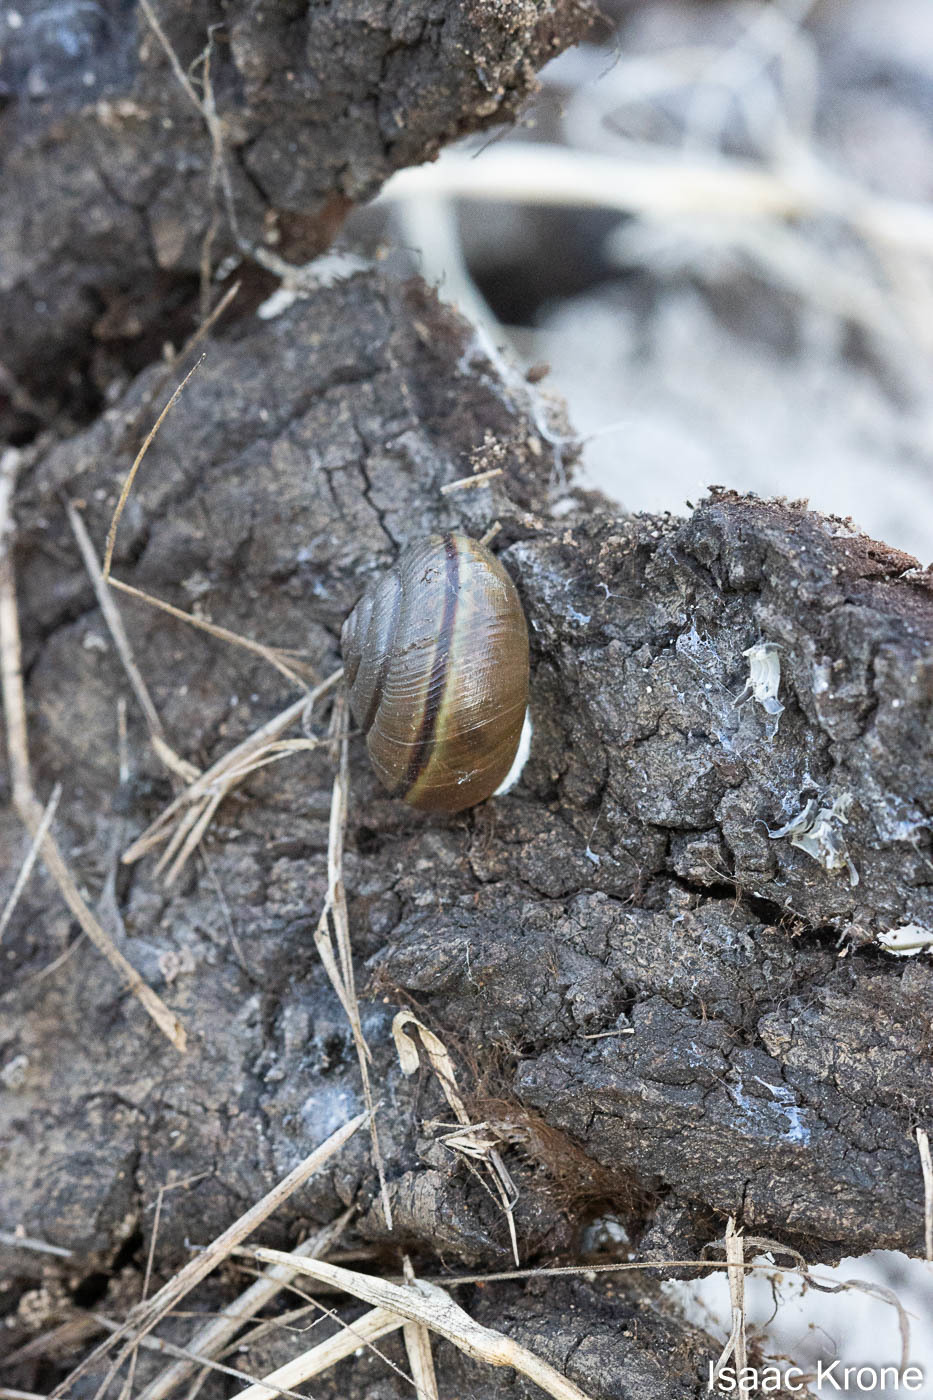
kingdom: Animalia
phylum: Mollusca
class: Gastropoda
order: Stylommatophora
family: Xanthonychidae
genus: Helminthoglypta
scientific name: Helminthoglypta traskii
